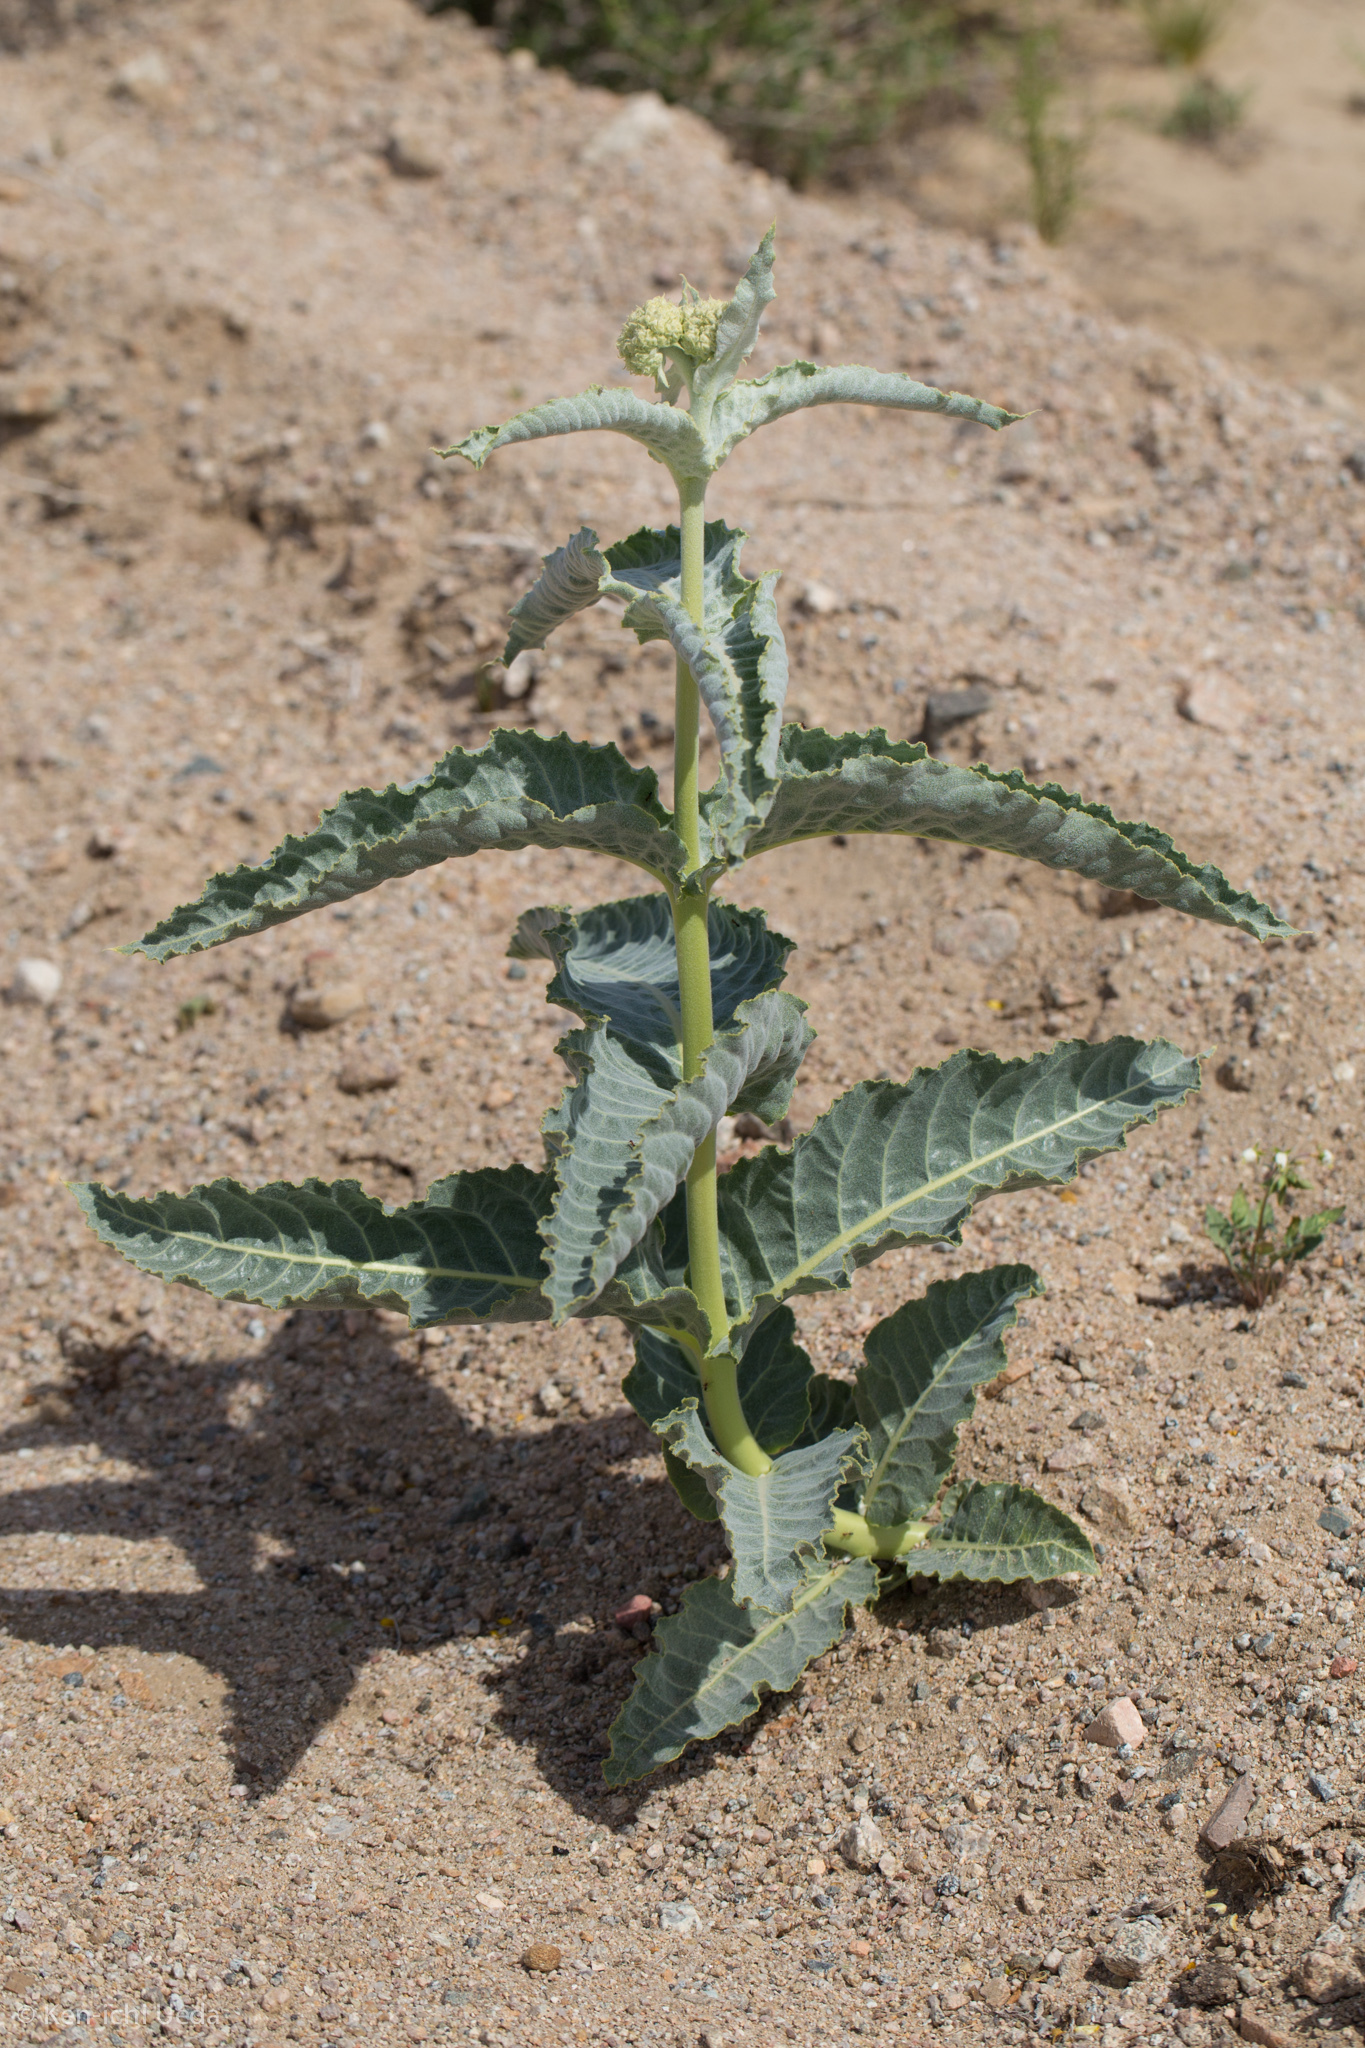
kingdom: Plantae
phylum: Tracheophyta
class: Magnoliopsida
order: Gentianales
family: Apocynaceae
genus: Asclepias
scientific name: Asclepias erosa
